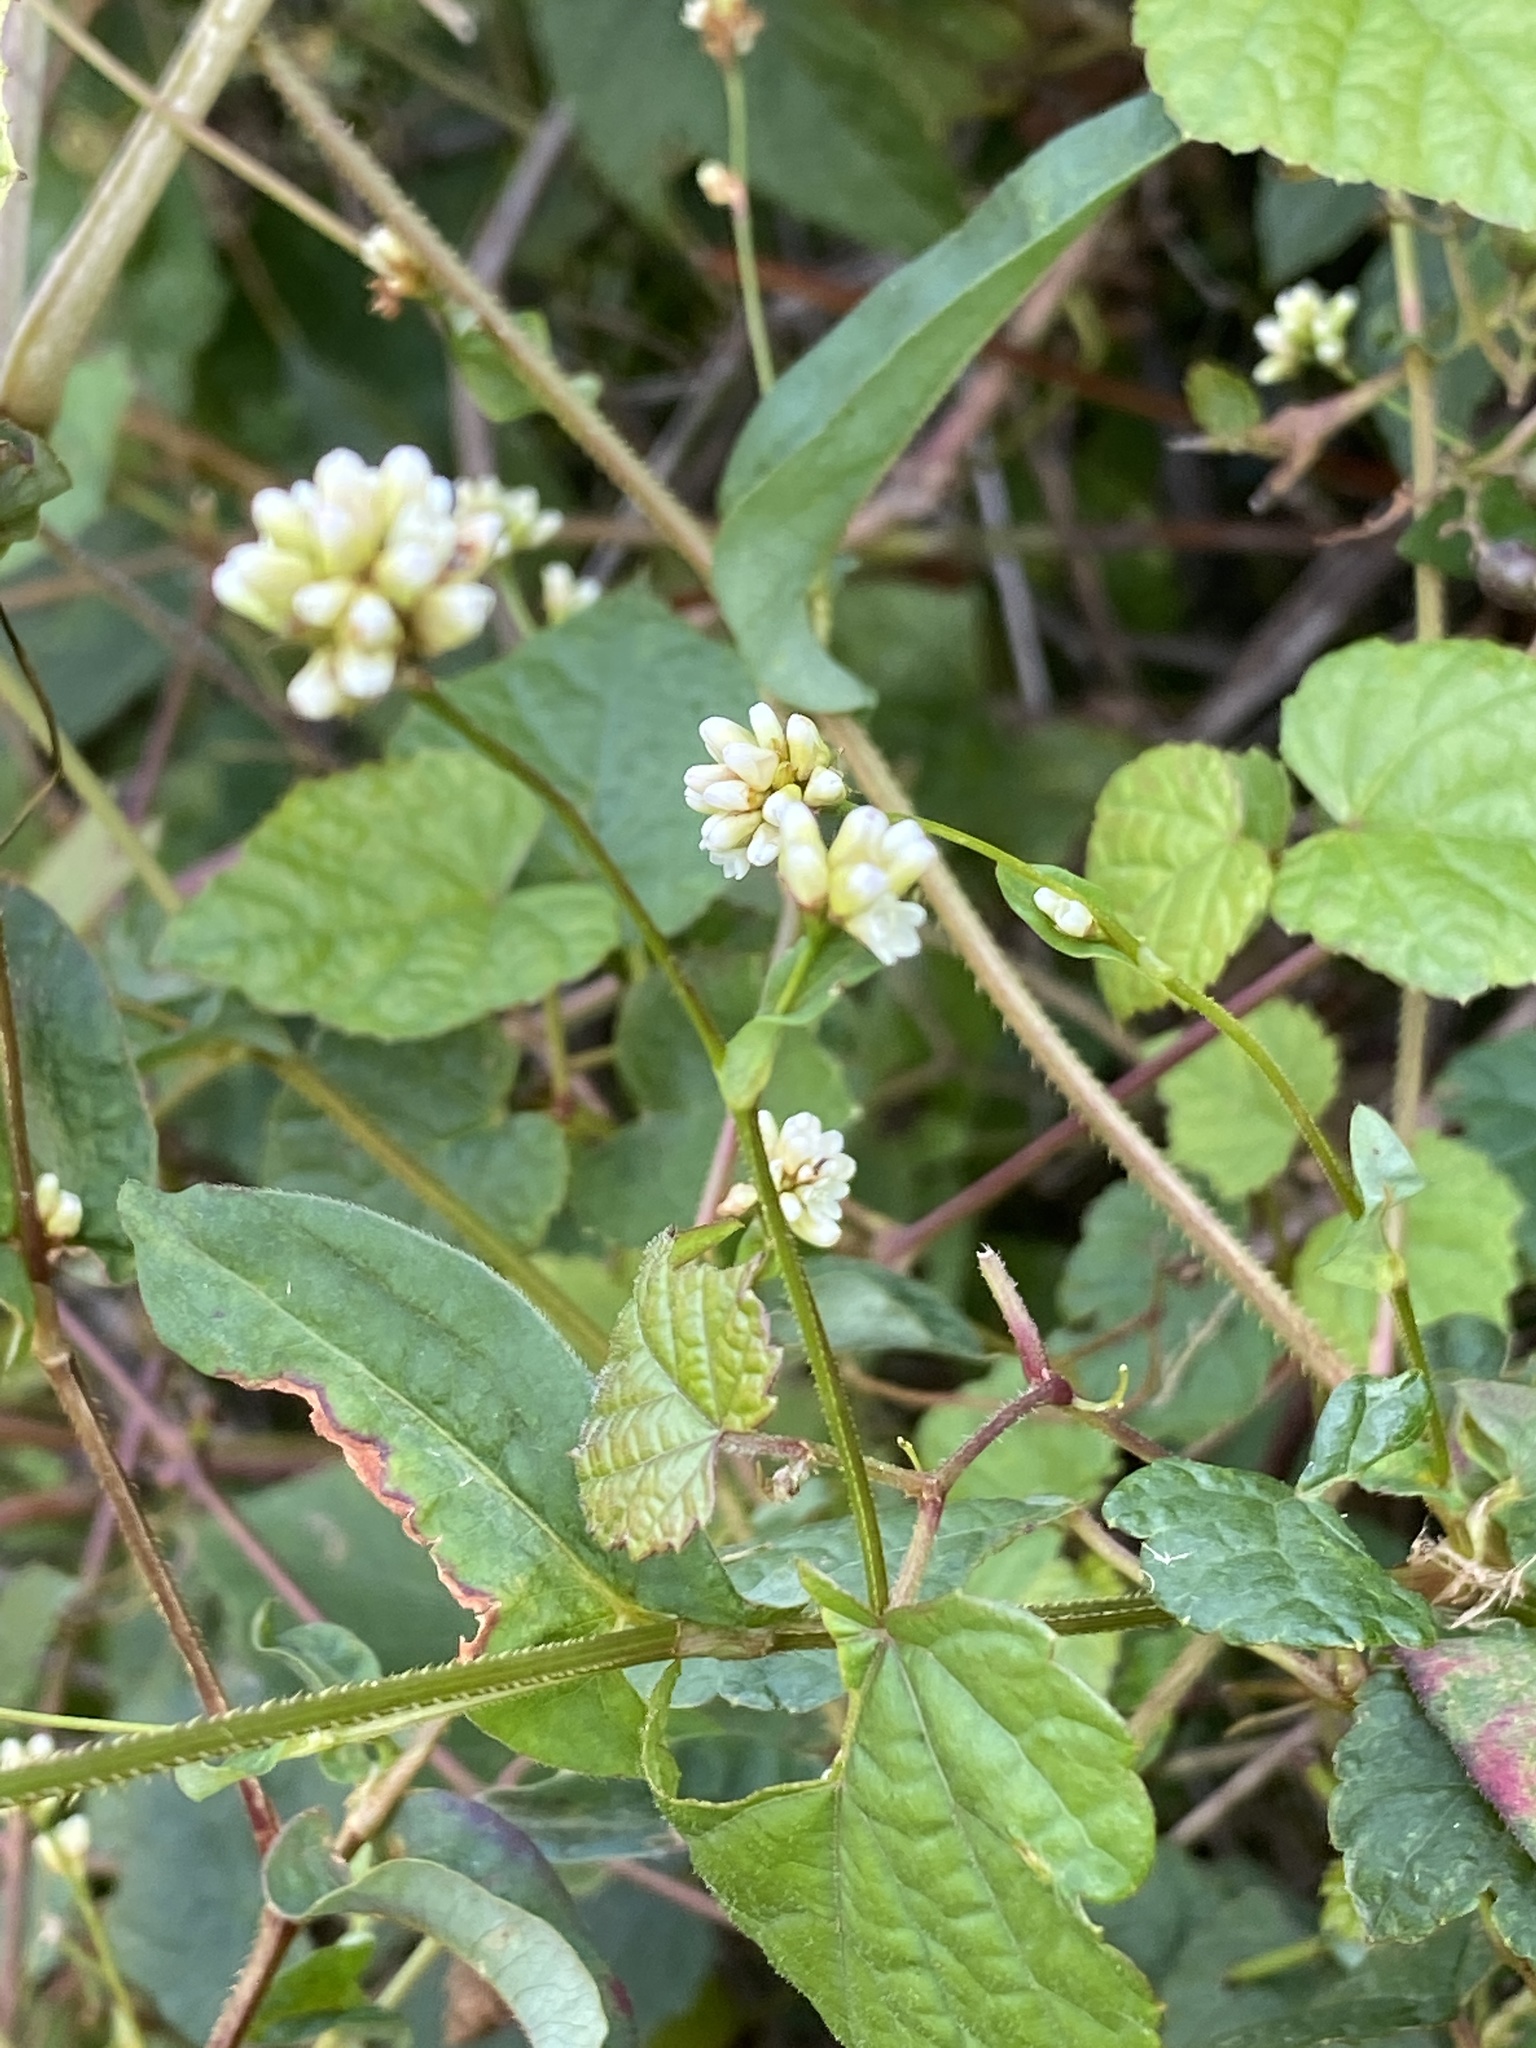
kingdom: Plantae
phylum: Tracheophyta
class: Magnoliopsida
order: Caryophyllales
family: Polygonaceae
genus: Persicaria
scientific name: Persicaria sagittata
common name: American tearthumb
